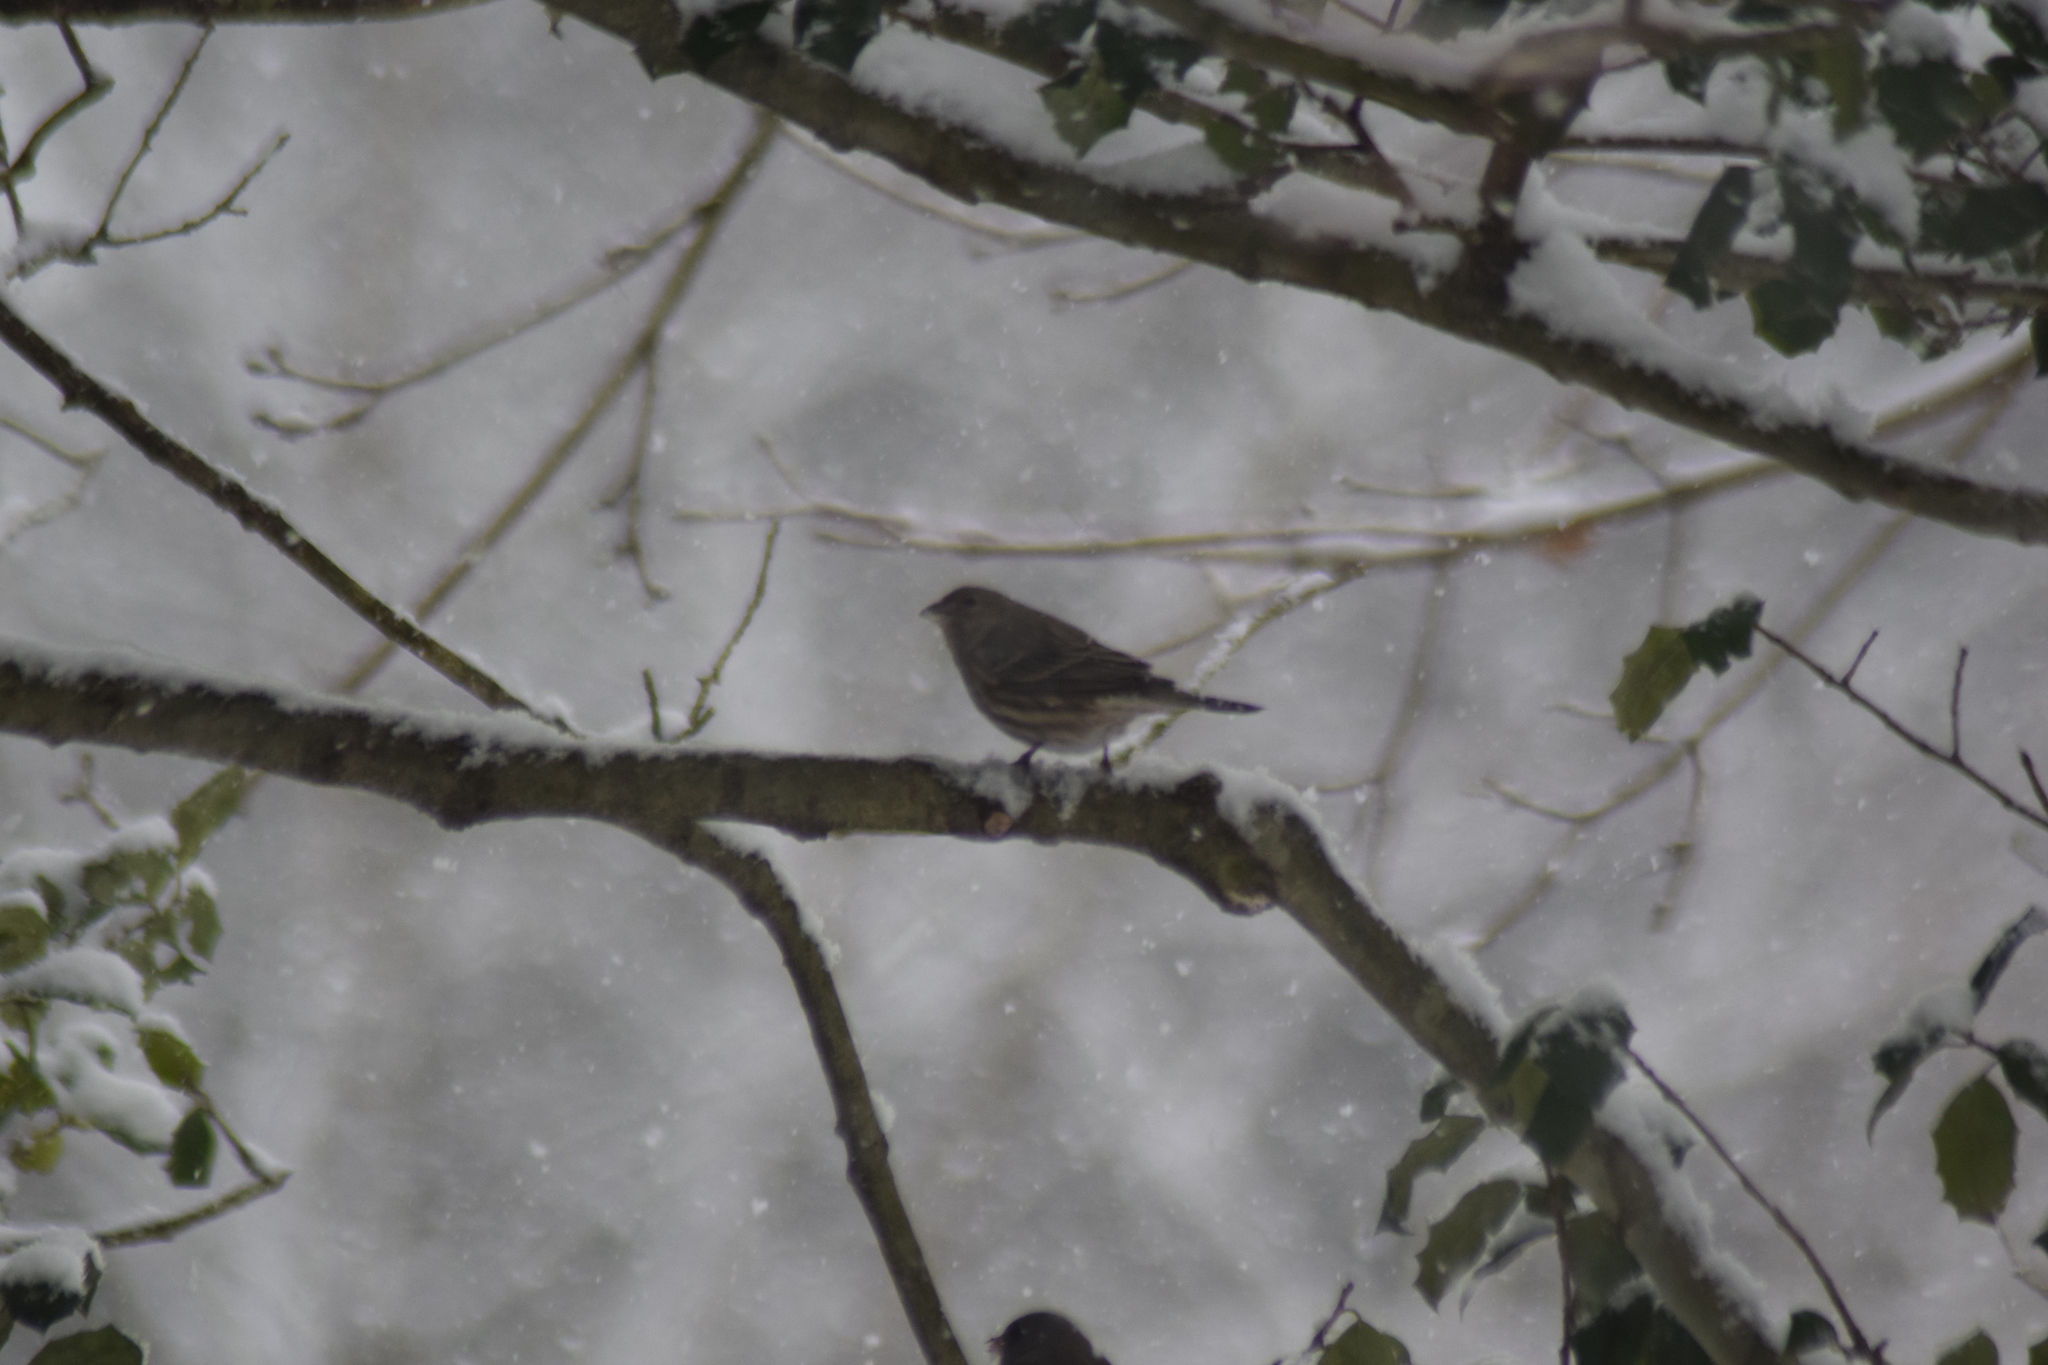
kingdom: Animalia
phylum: Chordata
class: Aves
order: Passeriformes
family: Fringillidae
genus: Haemorhous
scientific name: Haemorhous mexicanus
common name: House finch
